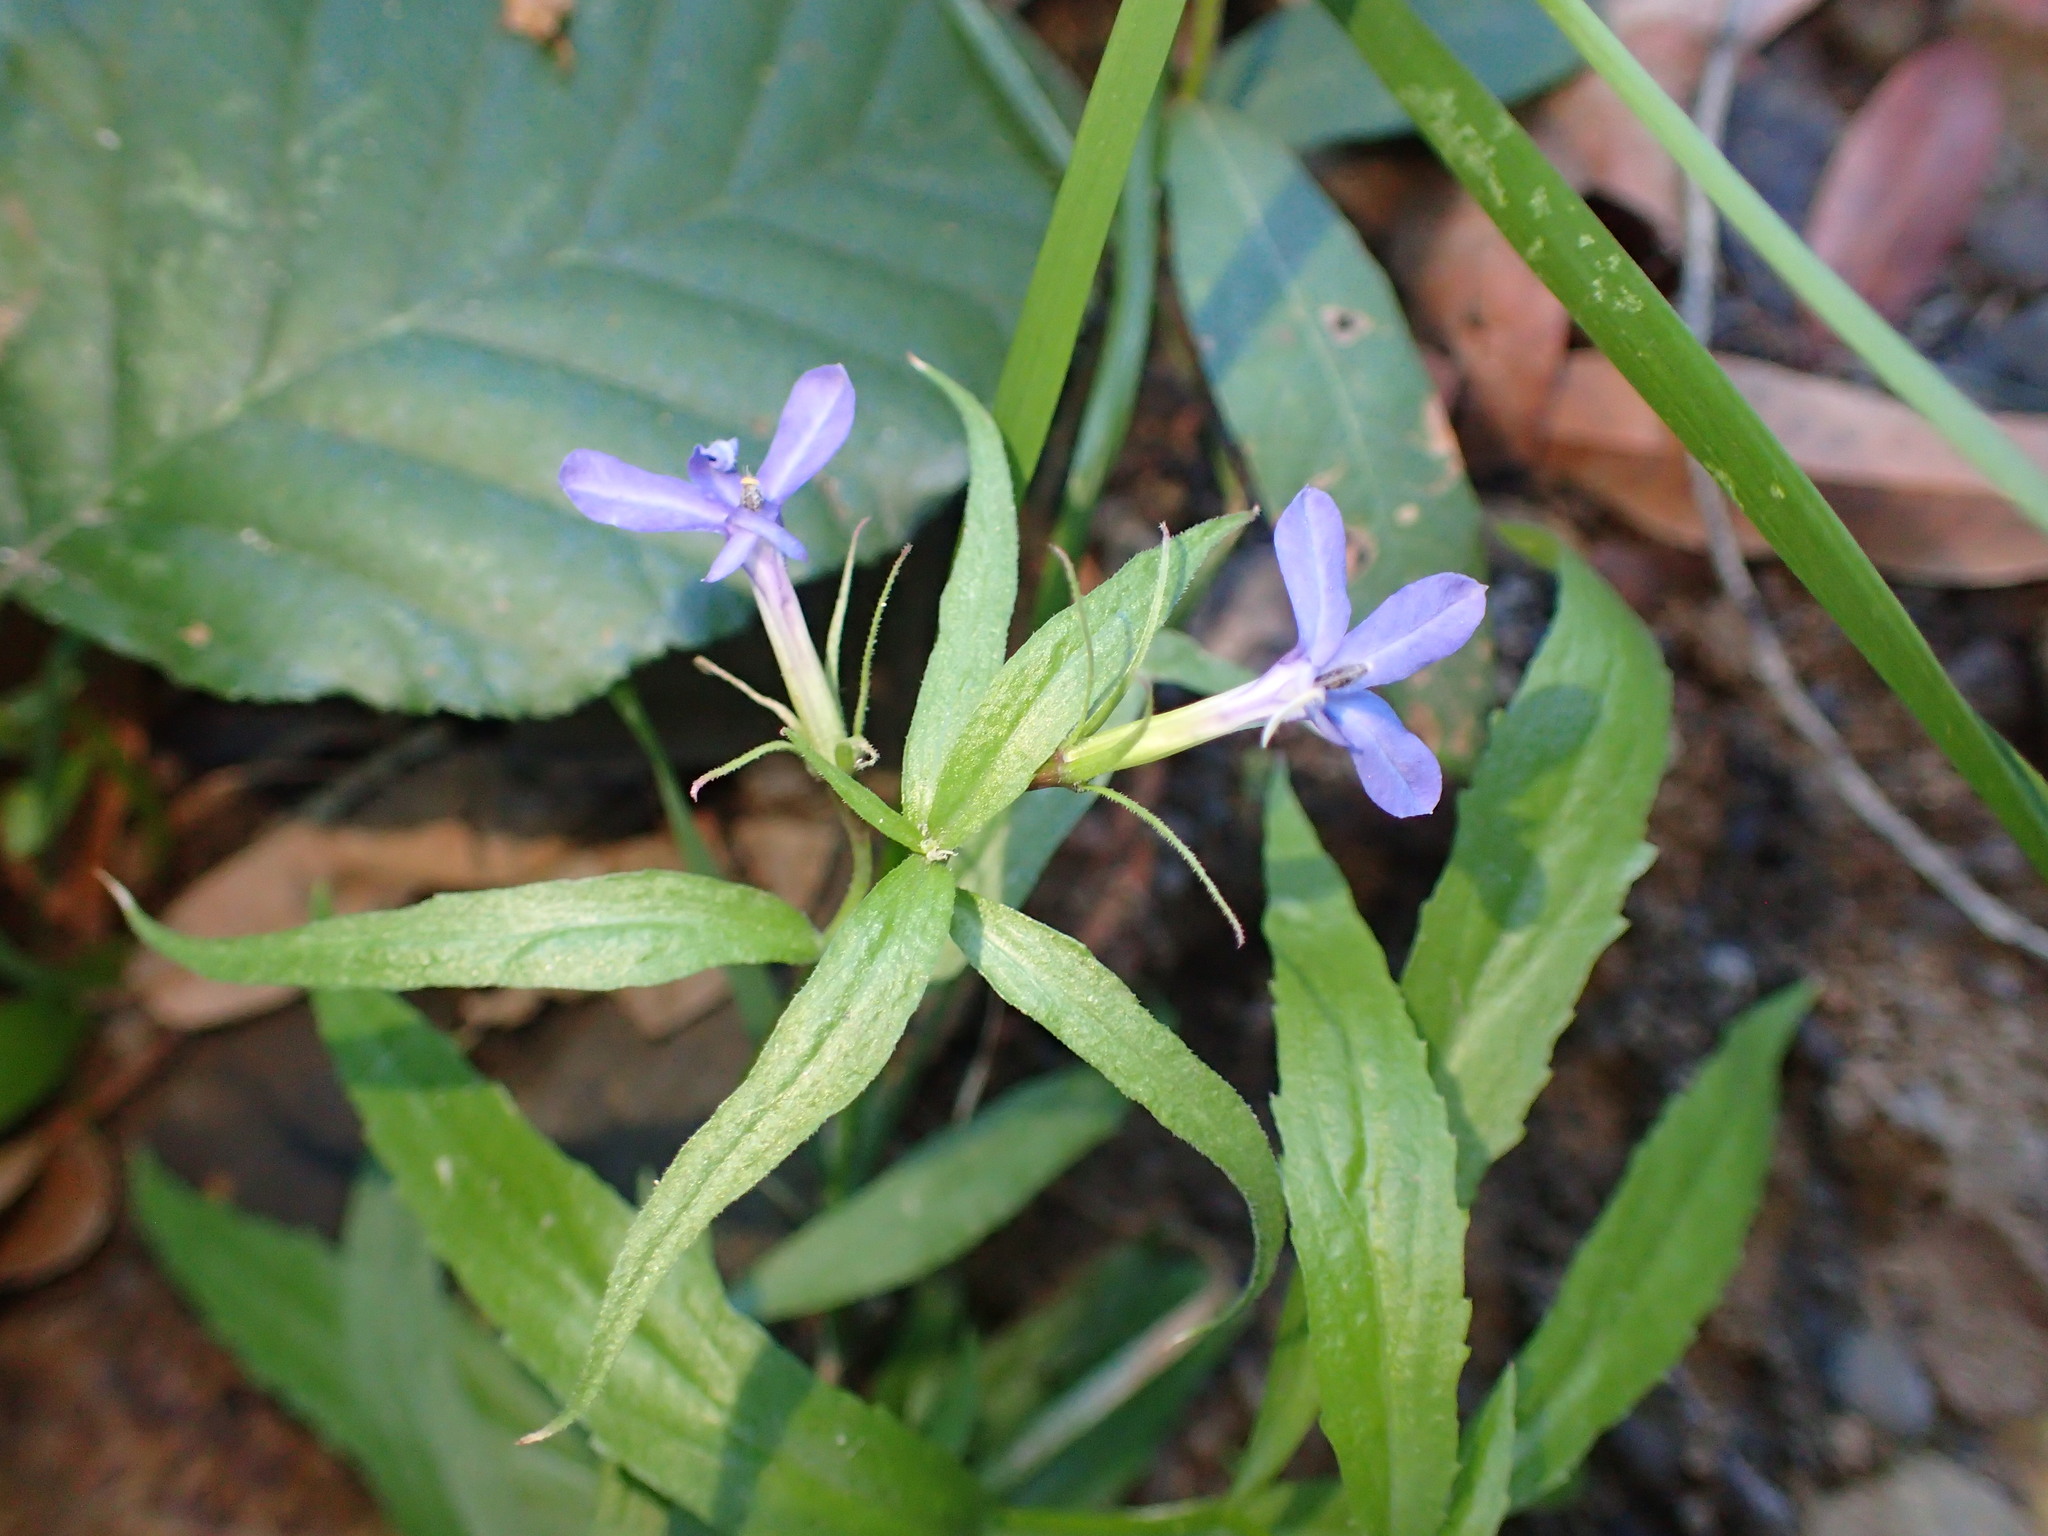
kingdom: Plantae
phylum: Tracheophyta
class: Magnoliopsida
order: Asterales
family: Campanulaceae
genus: Palmerella
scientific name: Palmerella debilis
